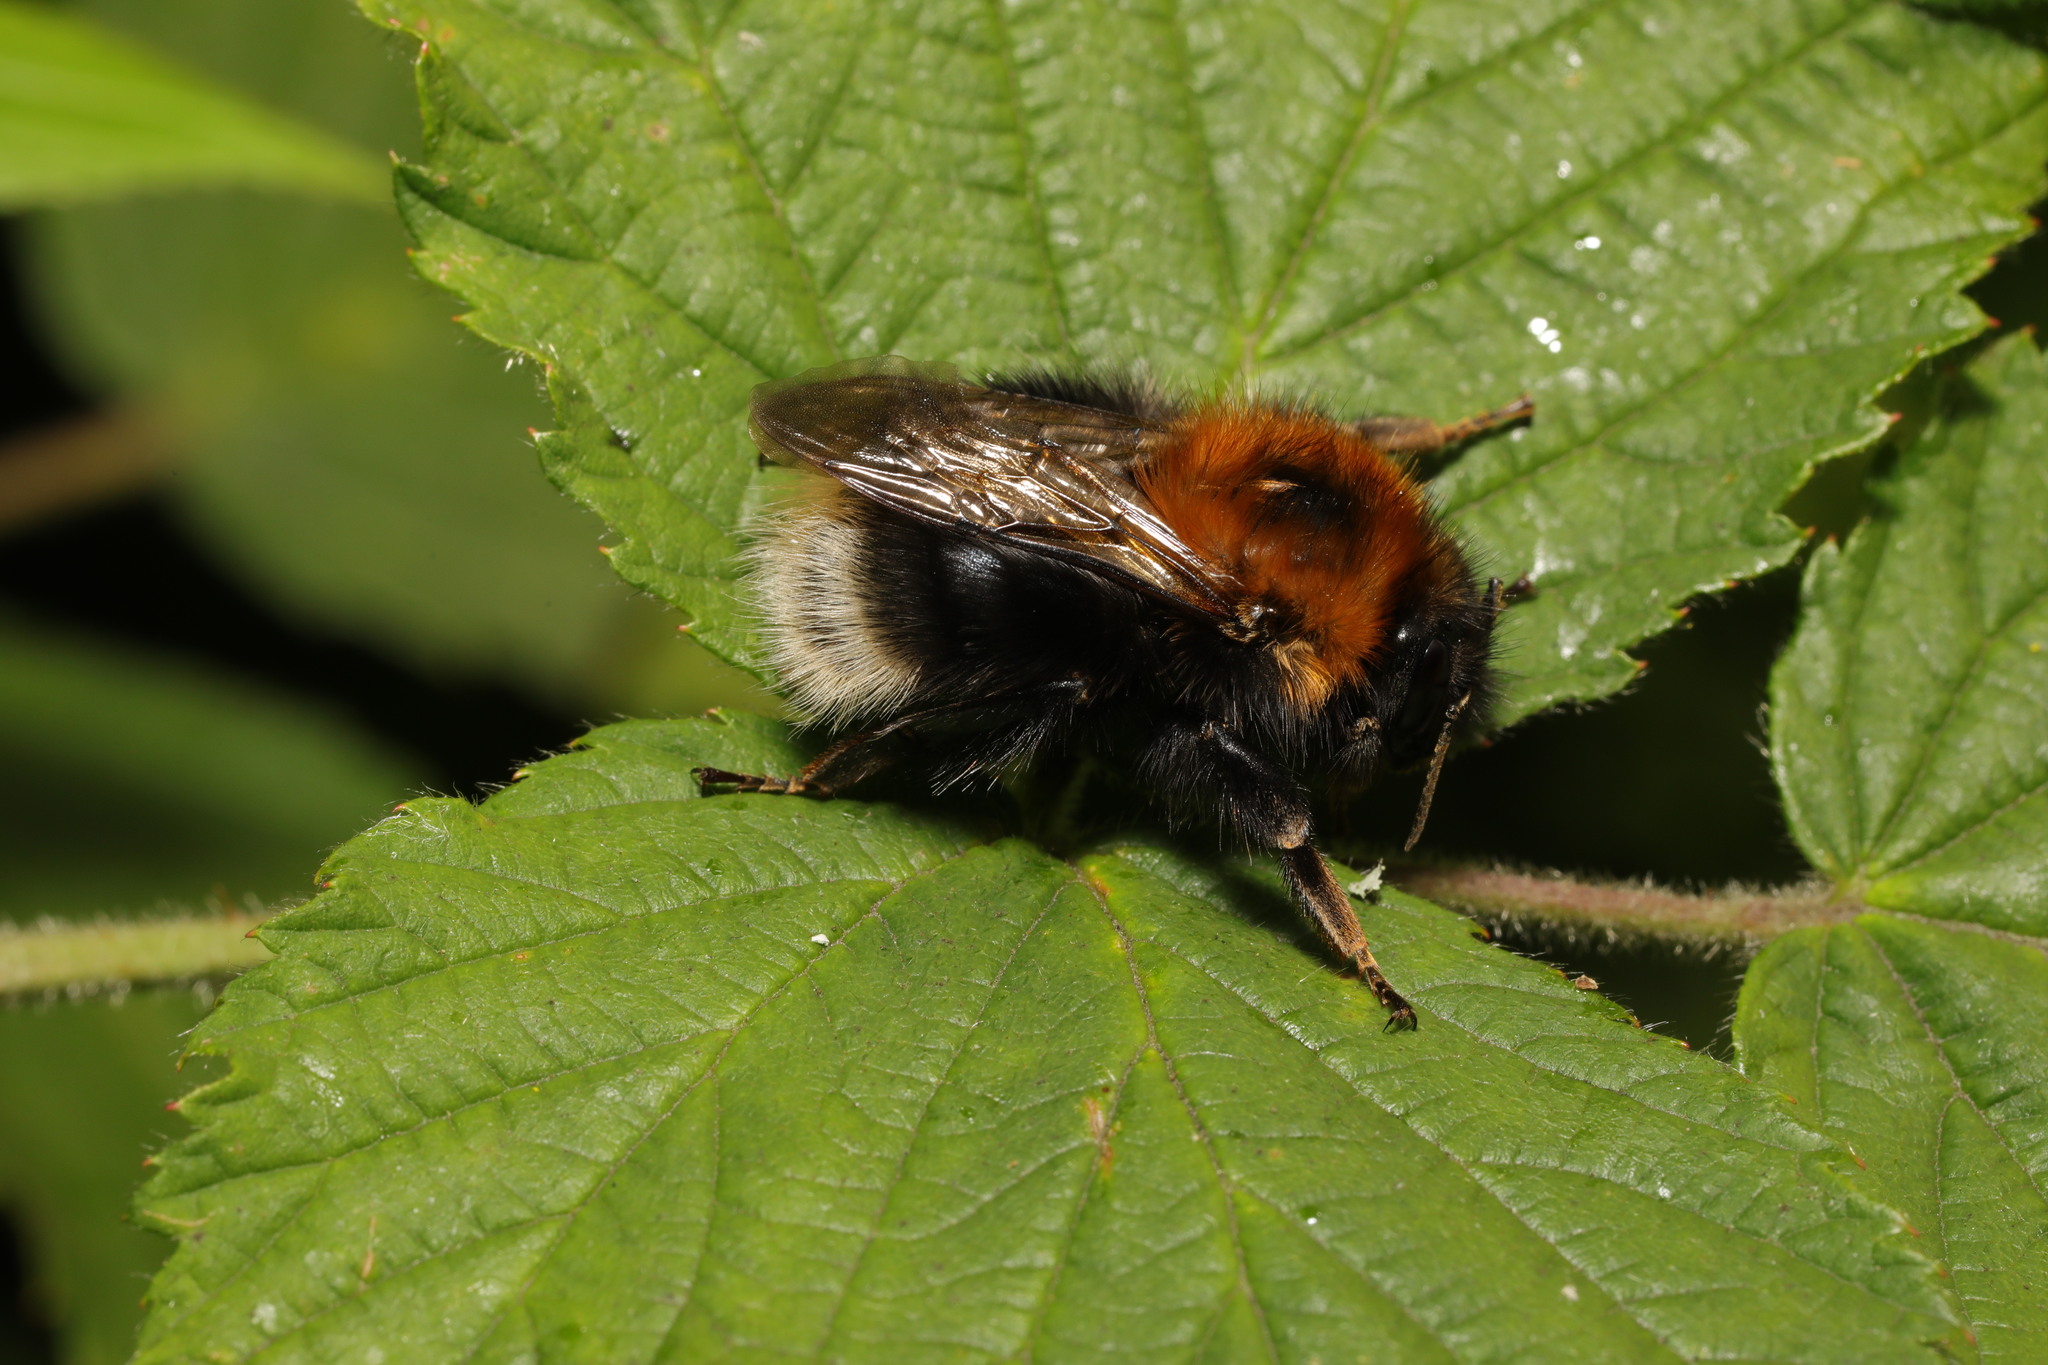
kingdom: Animalia
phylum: Arthropoda
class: Insecta
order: Hymenoptera
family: Apidae
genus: Bombus
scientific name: Bombus hypnorum
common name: New garden bumblebee
